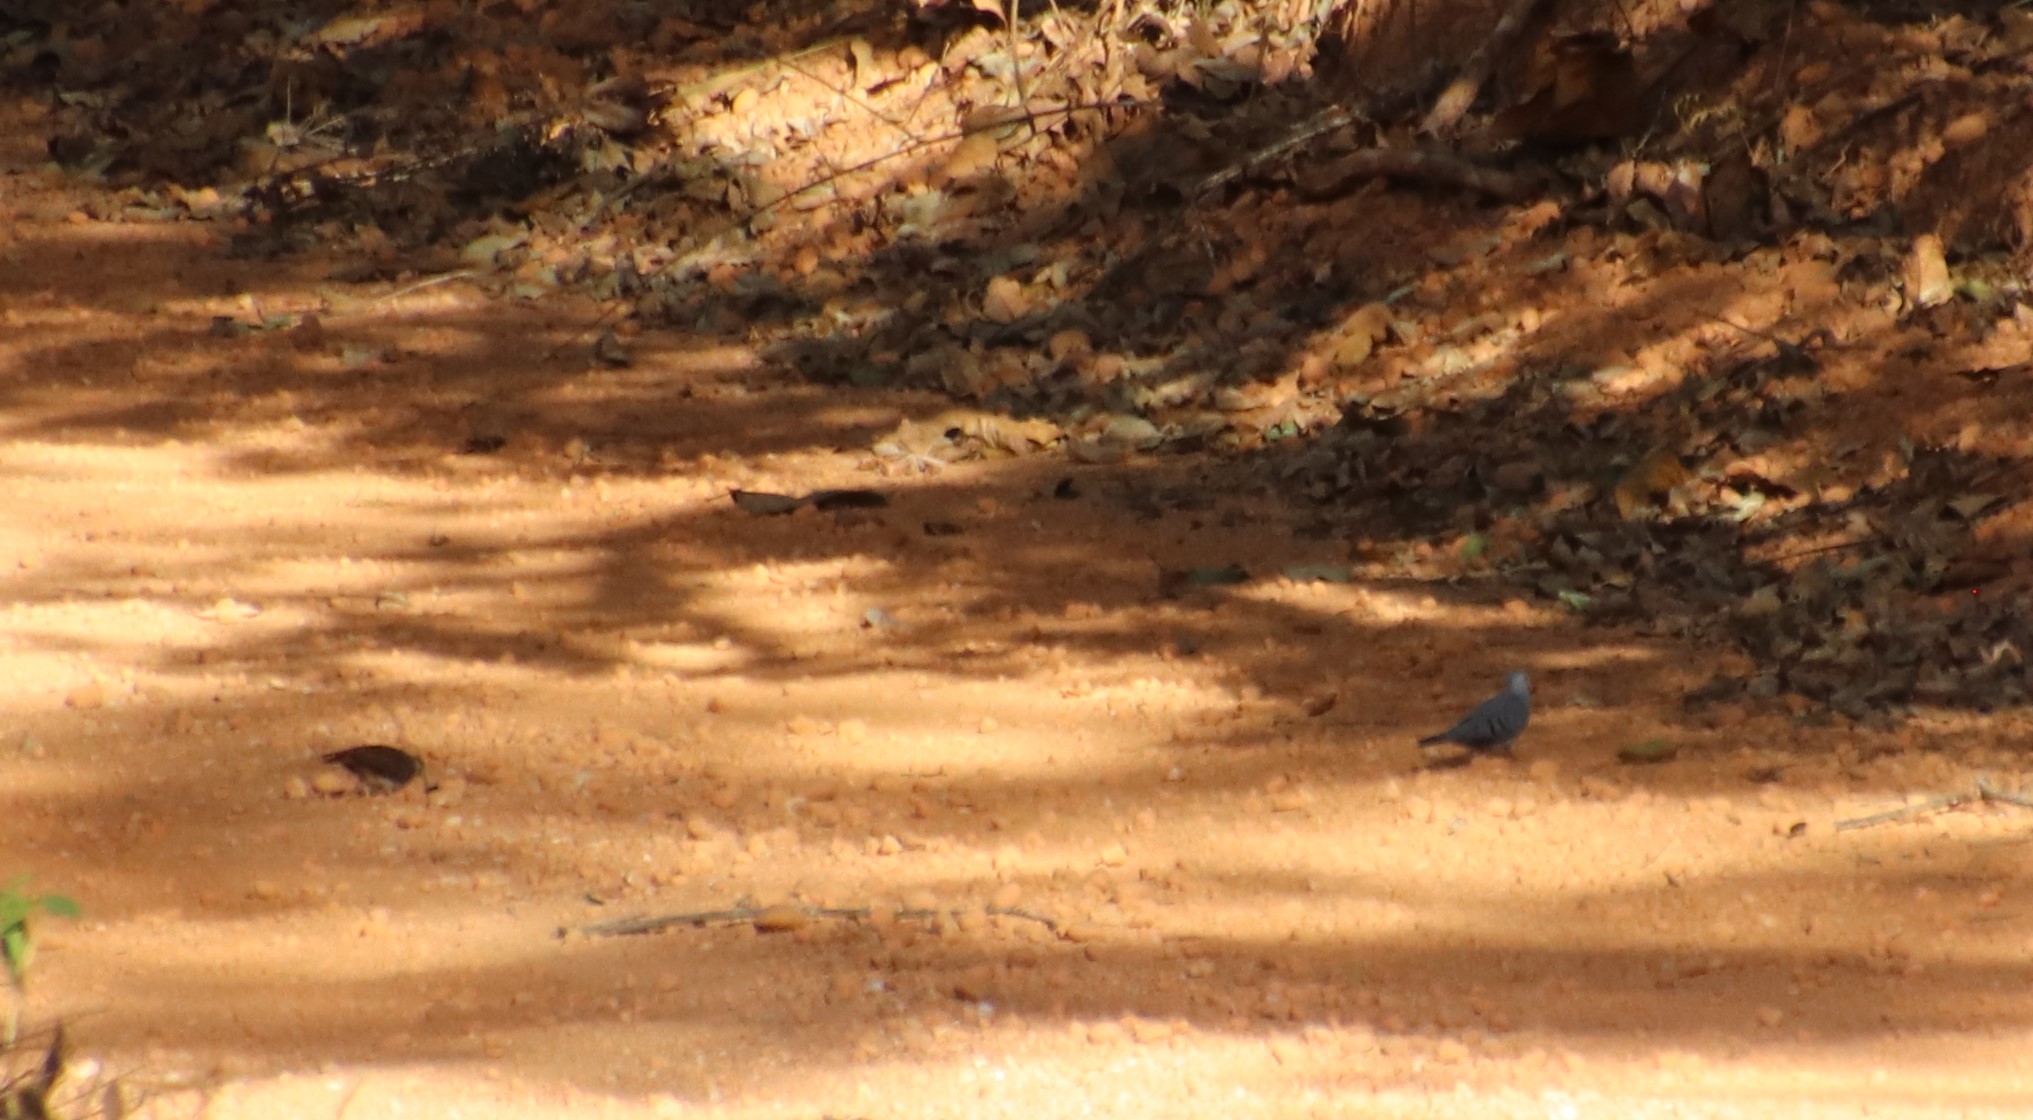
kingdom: Animalia
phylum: Chordata
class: Aves
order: Columbiformes
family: Columbidae
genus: Claravis
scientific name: Claravis pretiosa
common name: Blue ground-dove
